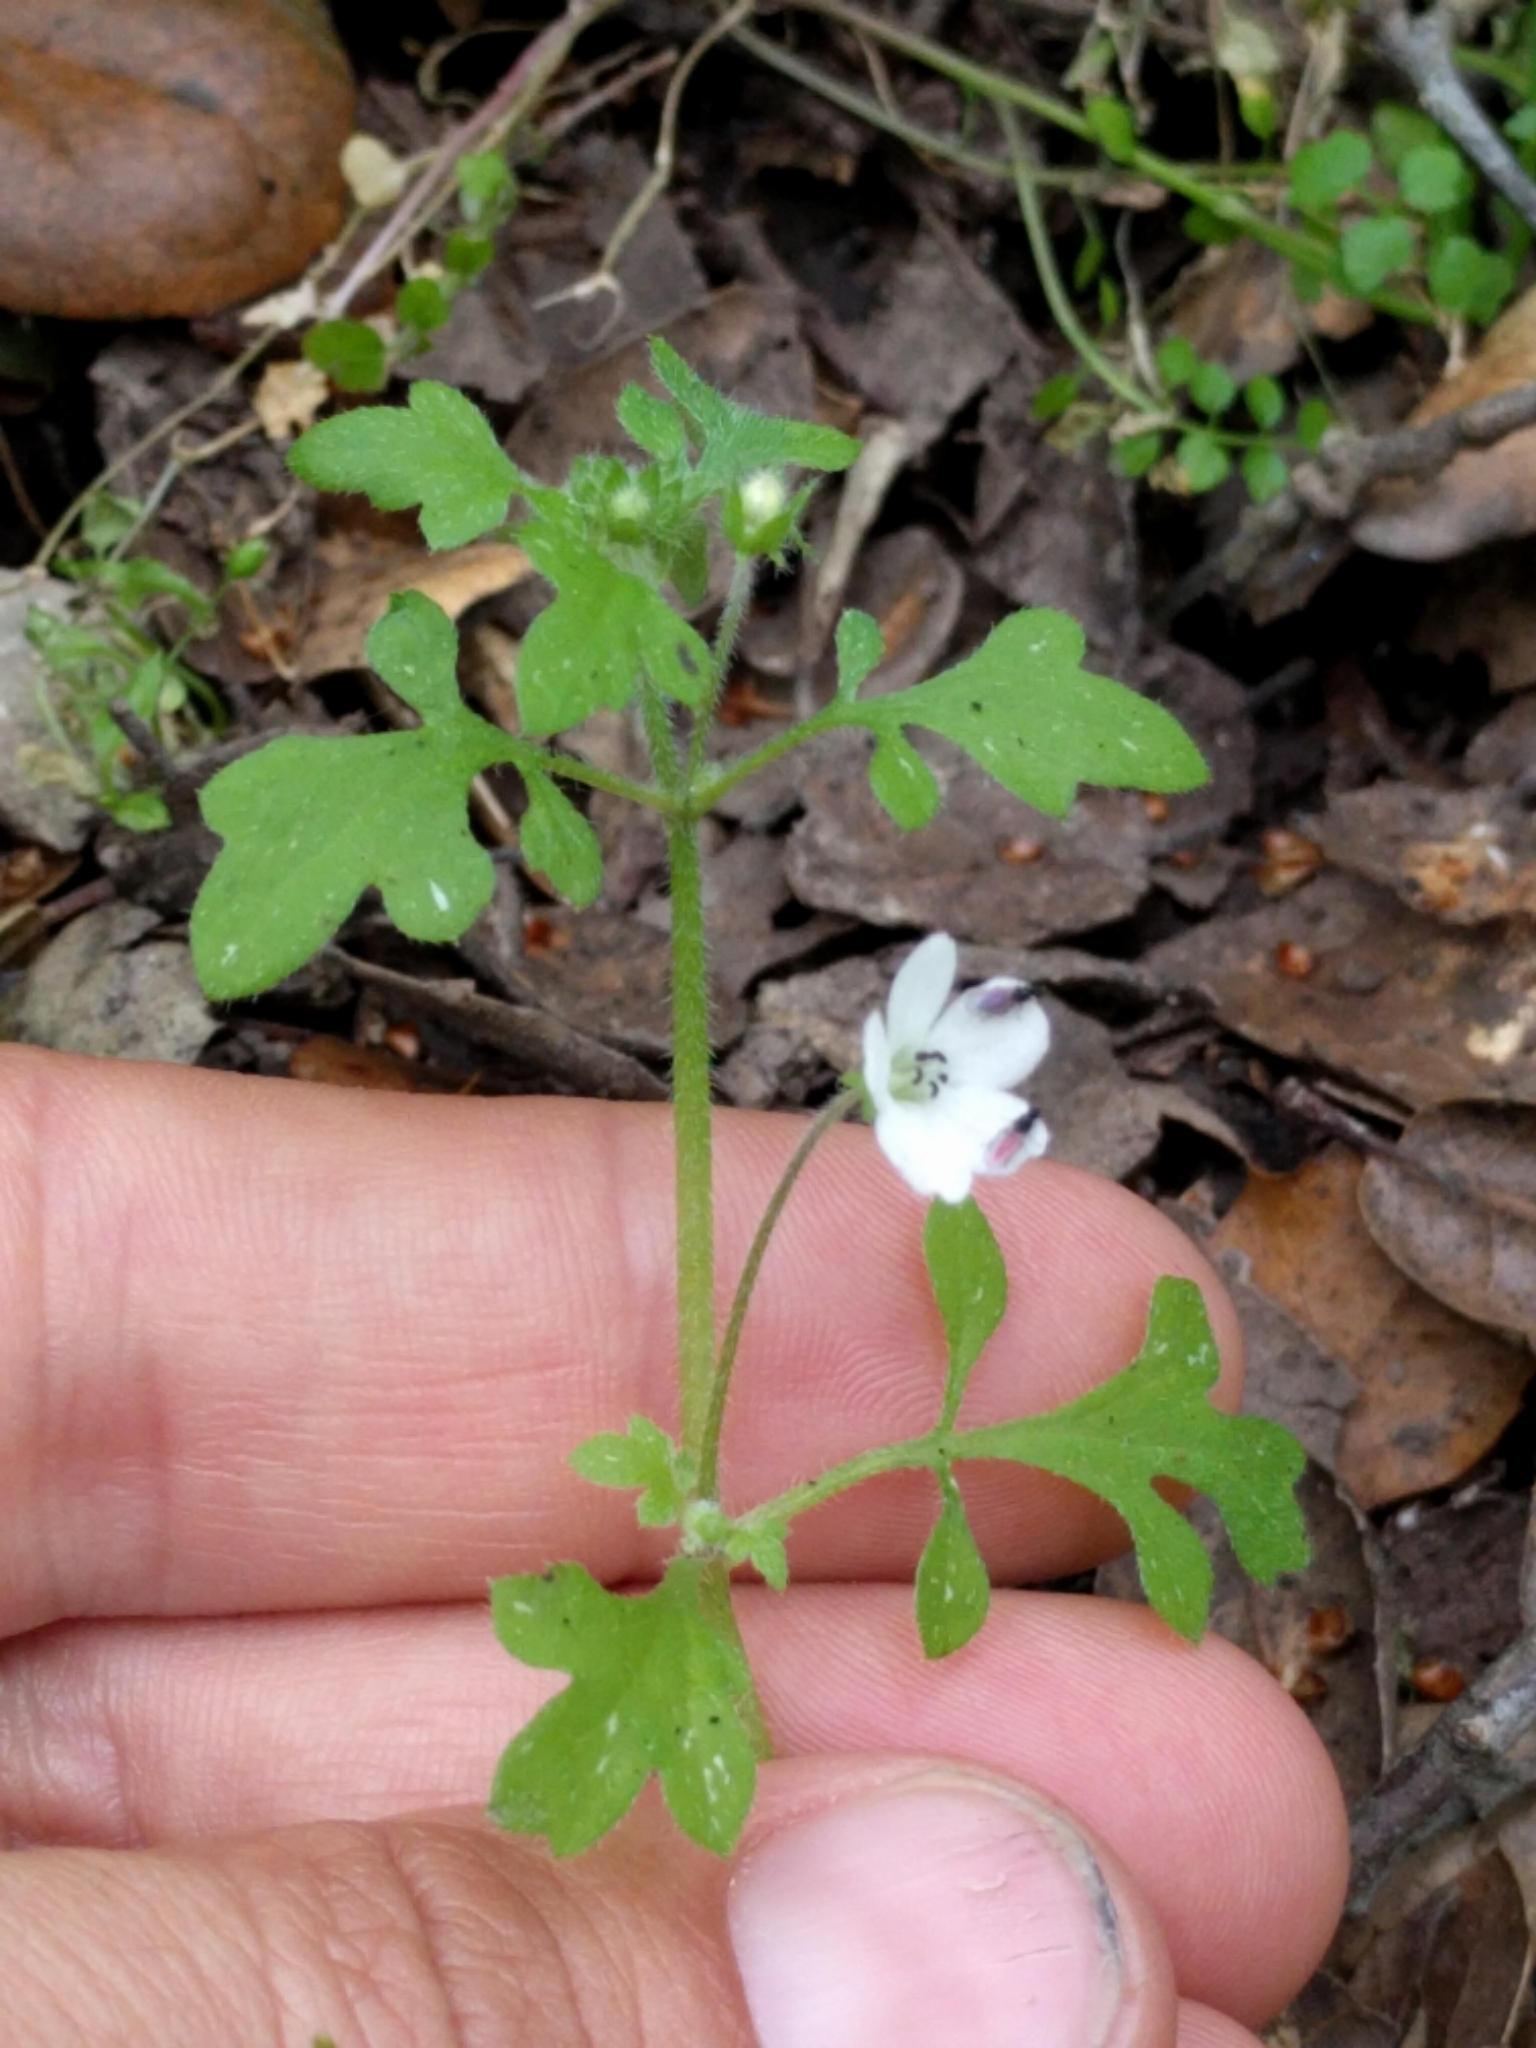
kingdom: Plantae
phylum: Tracheophyta
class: Magnoliopsida
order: Boraginales
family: Hydrophyllaceae
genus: Nemophila
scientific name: Nemophila heterophylla
